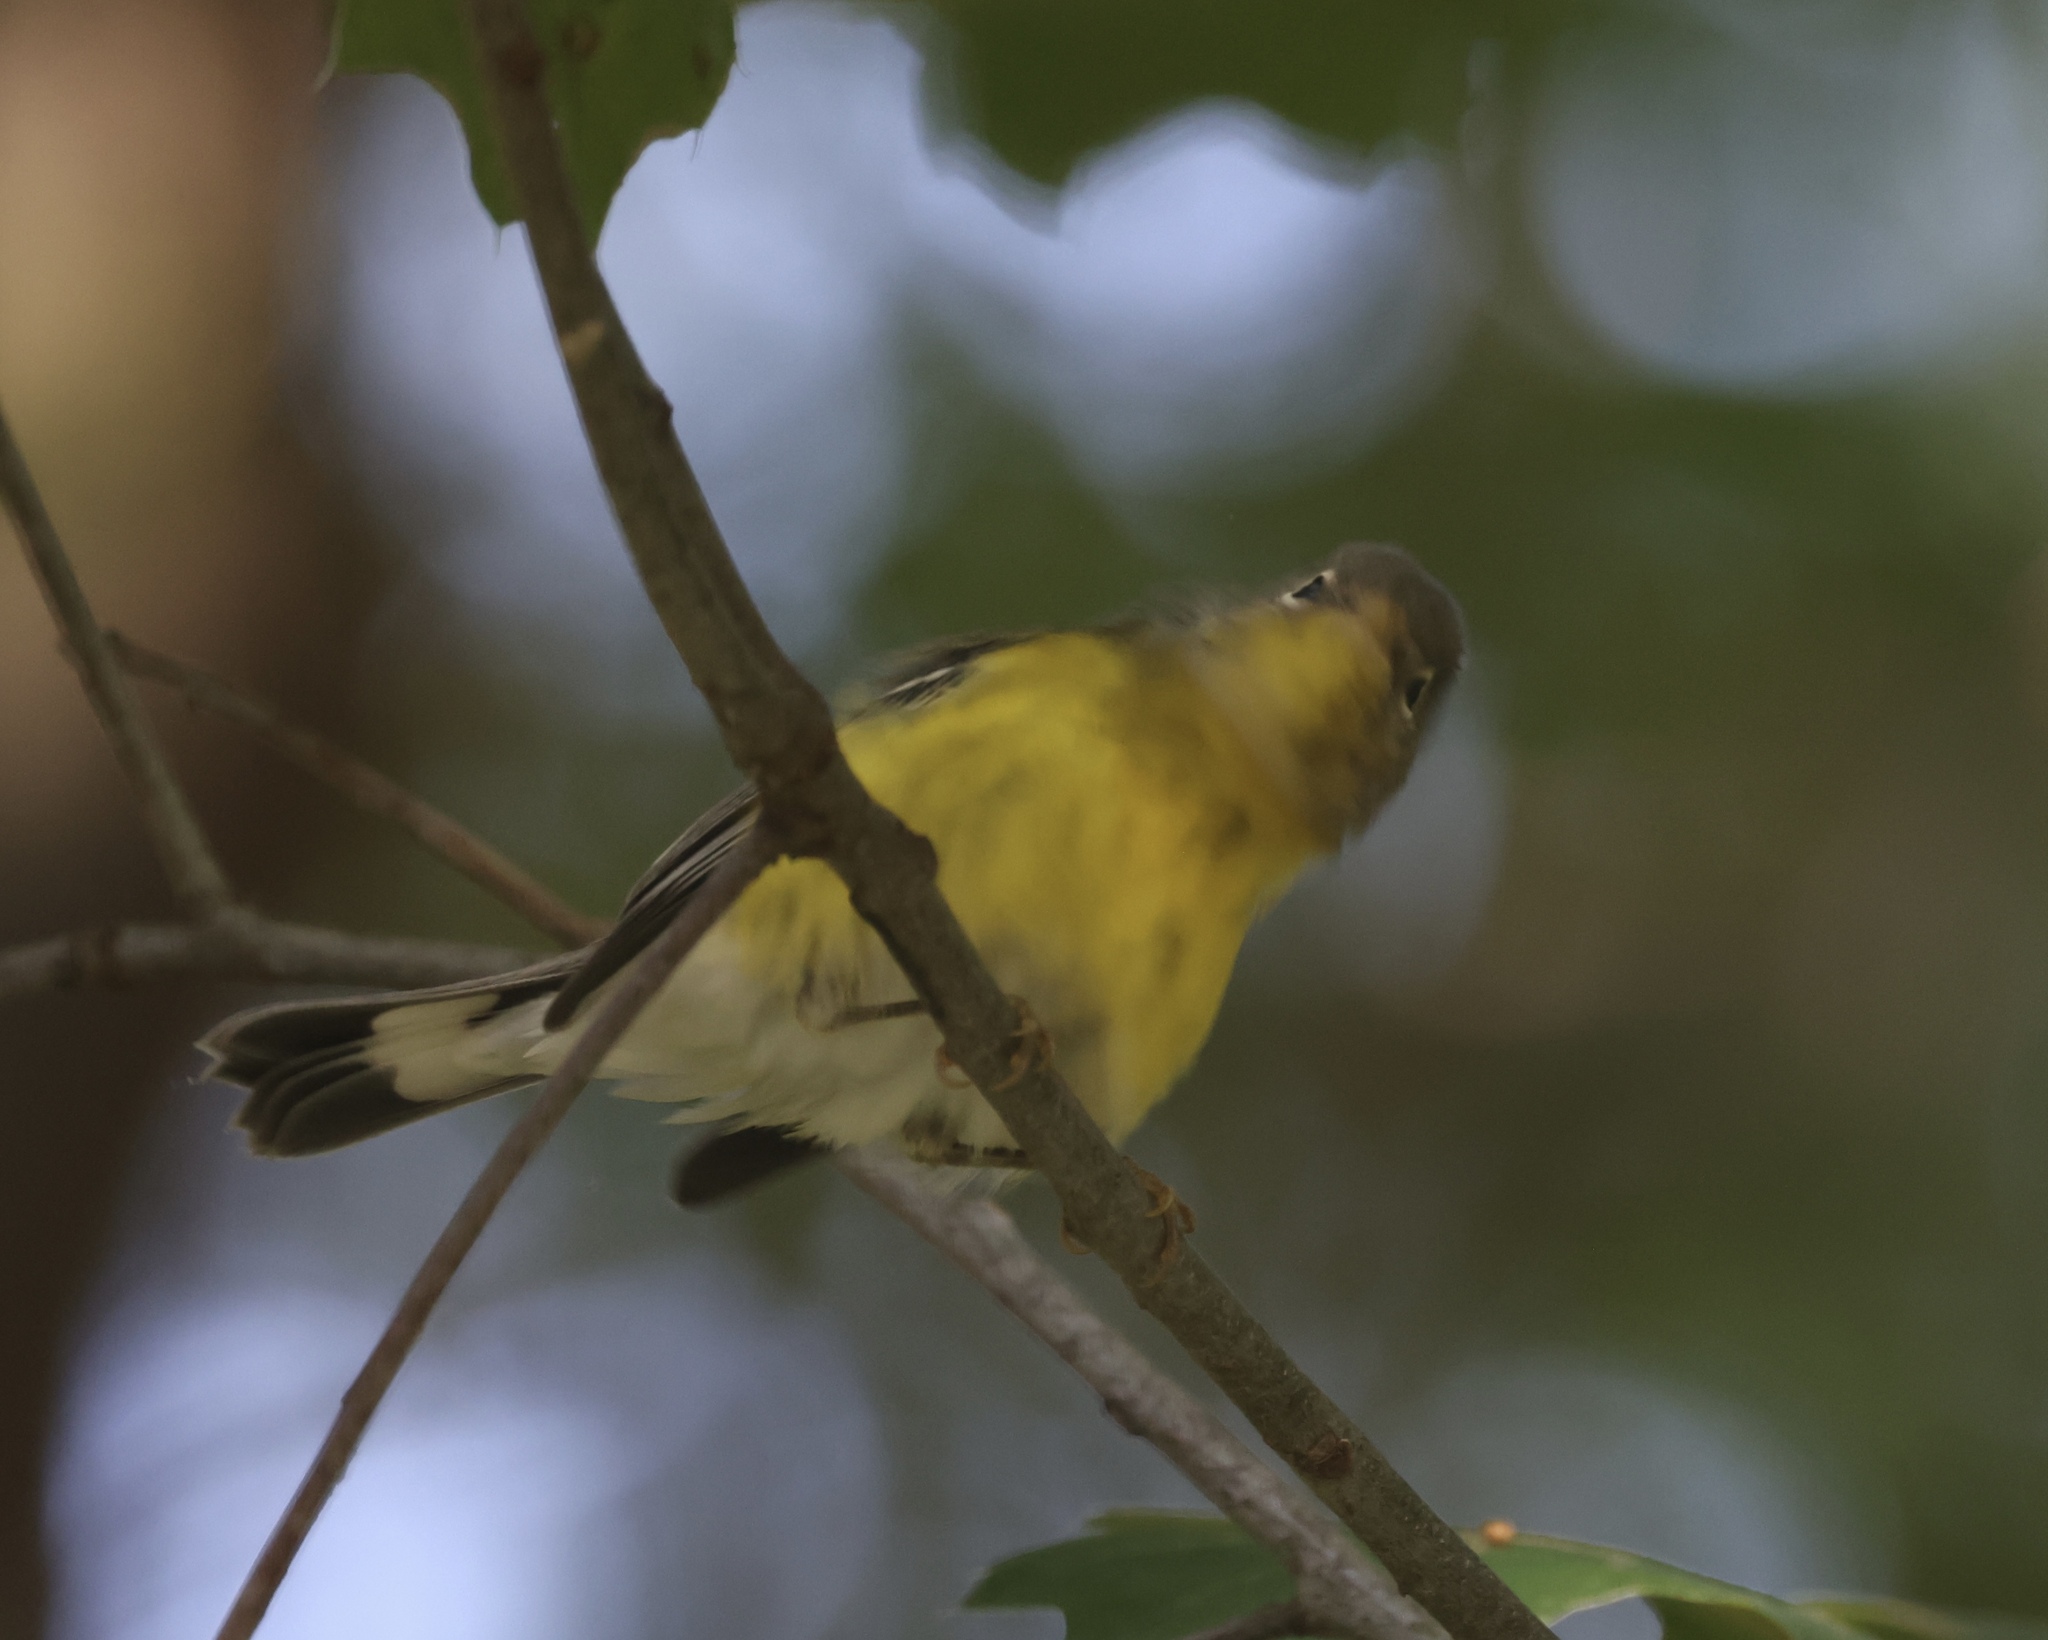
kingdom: Animalia
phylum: Chordata
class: Aves
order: Passeriformes
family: Parulidae
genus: Setophaga
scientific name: Setophaga magnolia
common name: Magnolia warbler
